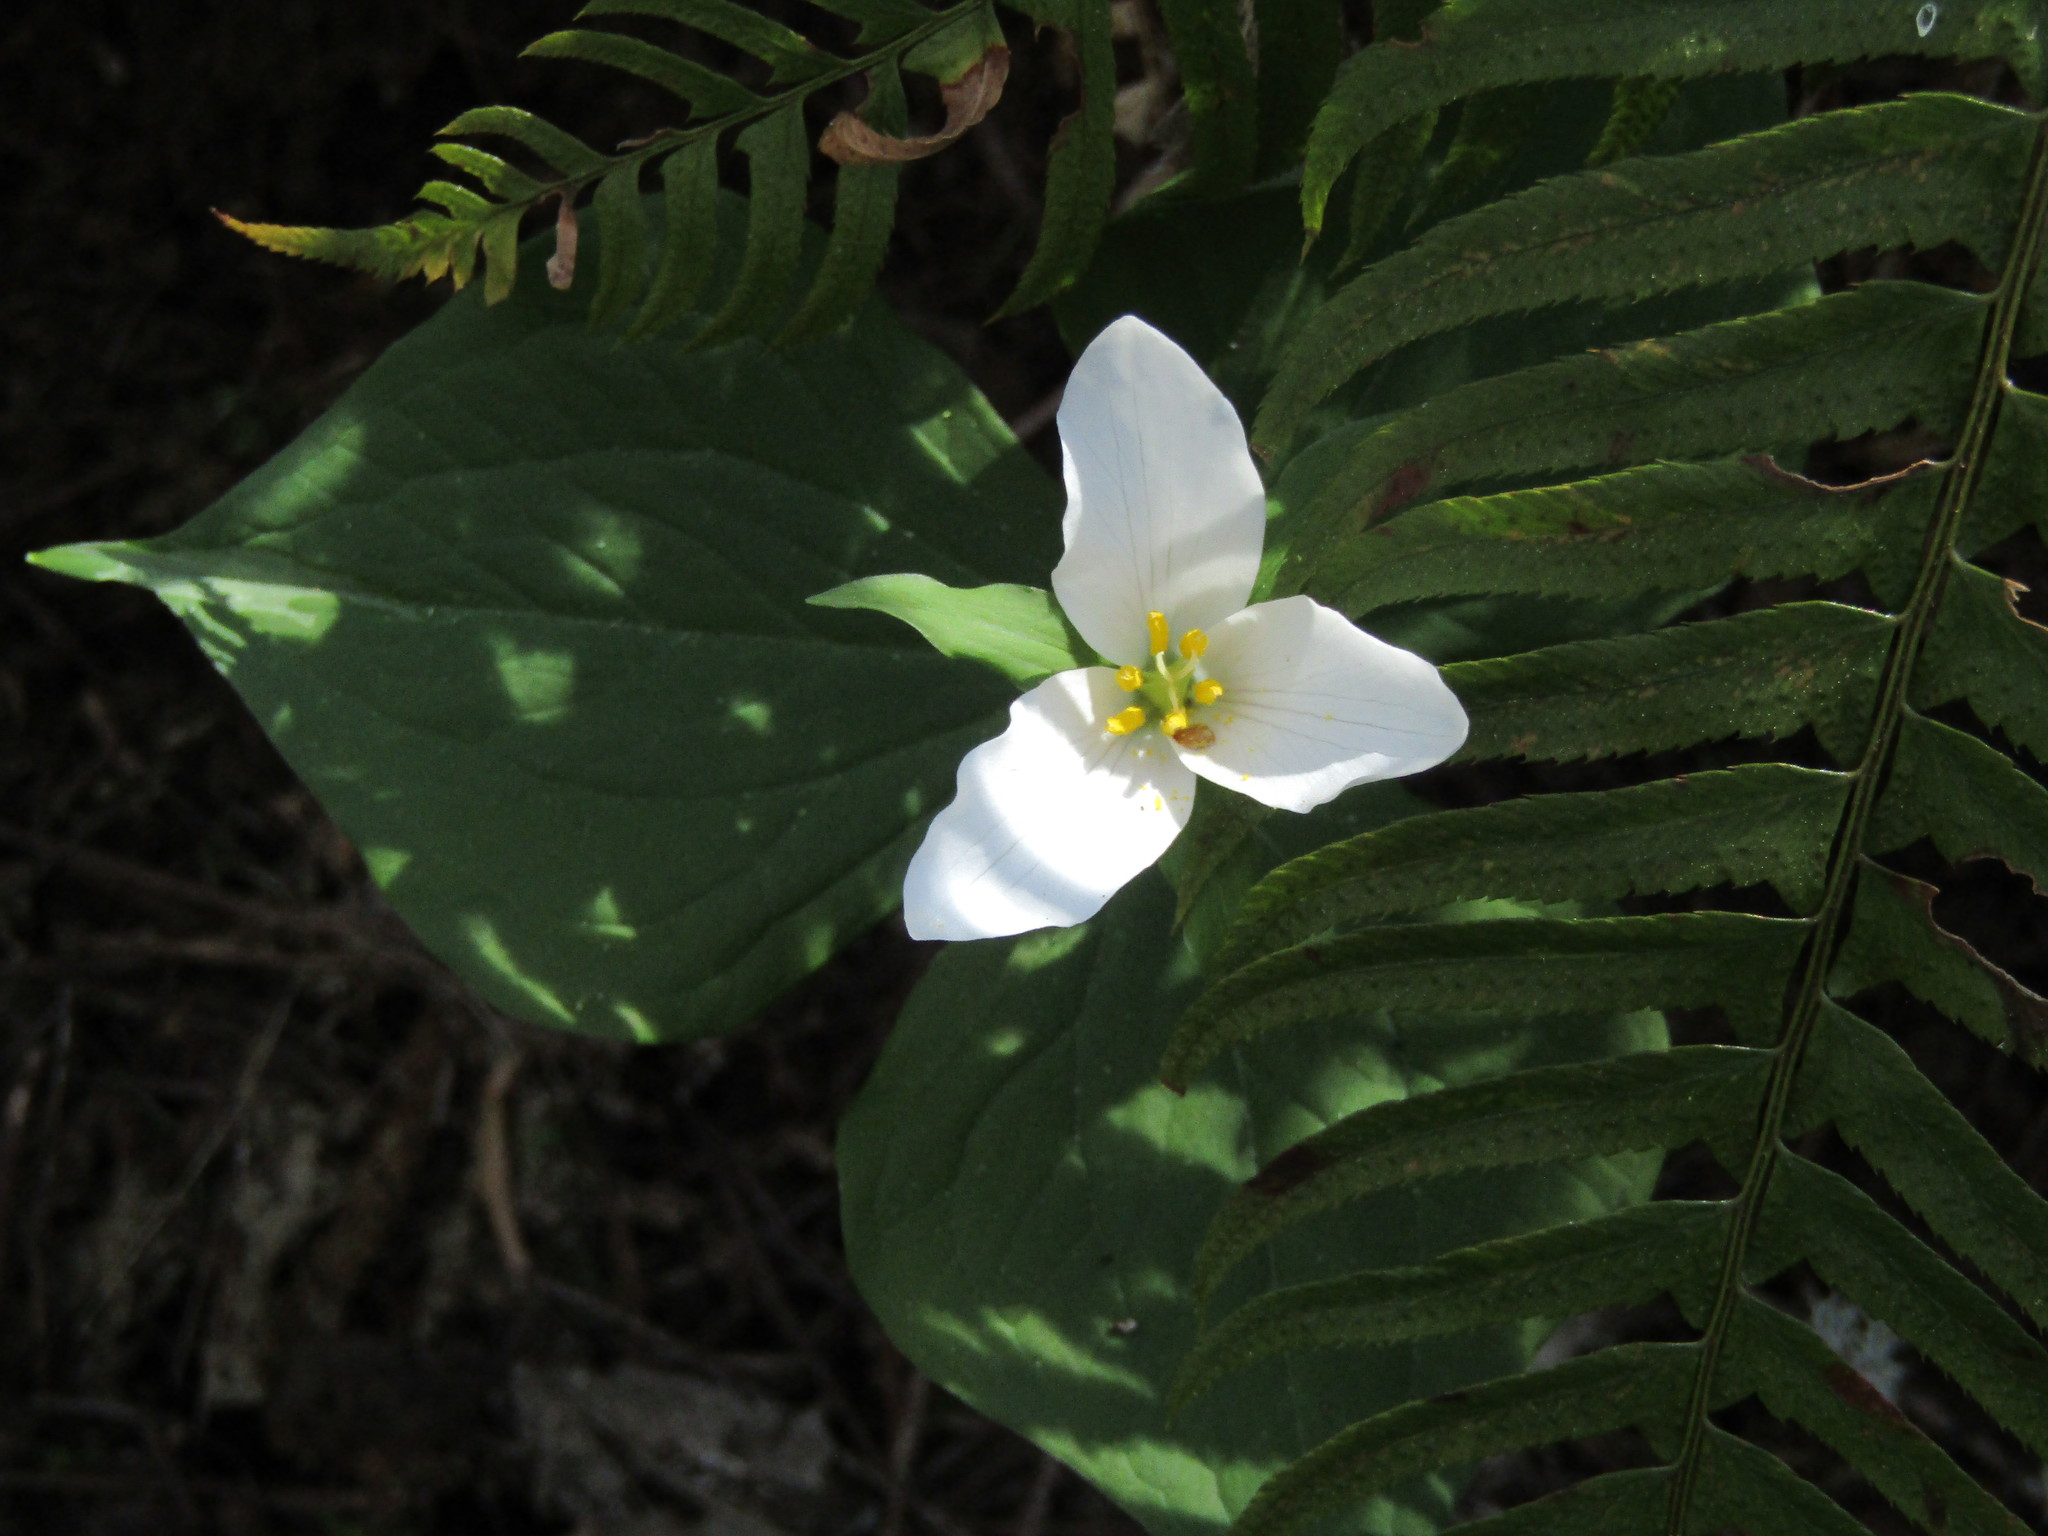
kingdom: Plantae
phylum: Tracheophyta
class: Liliopsida
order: Liliales
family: Melanthiaceae
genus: Trillium
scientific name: Trillium ovatum
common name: Pacific trillium
